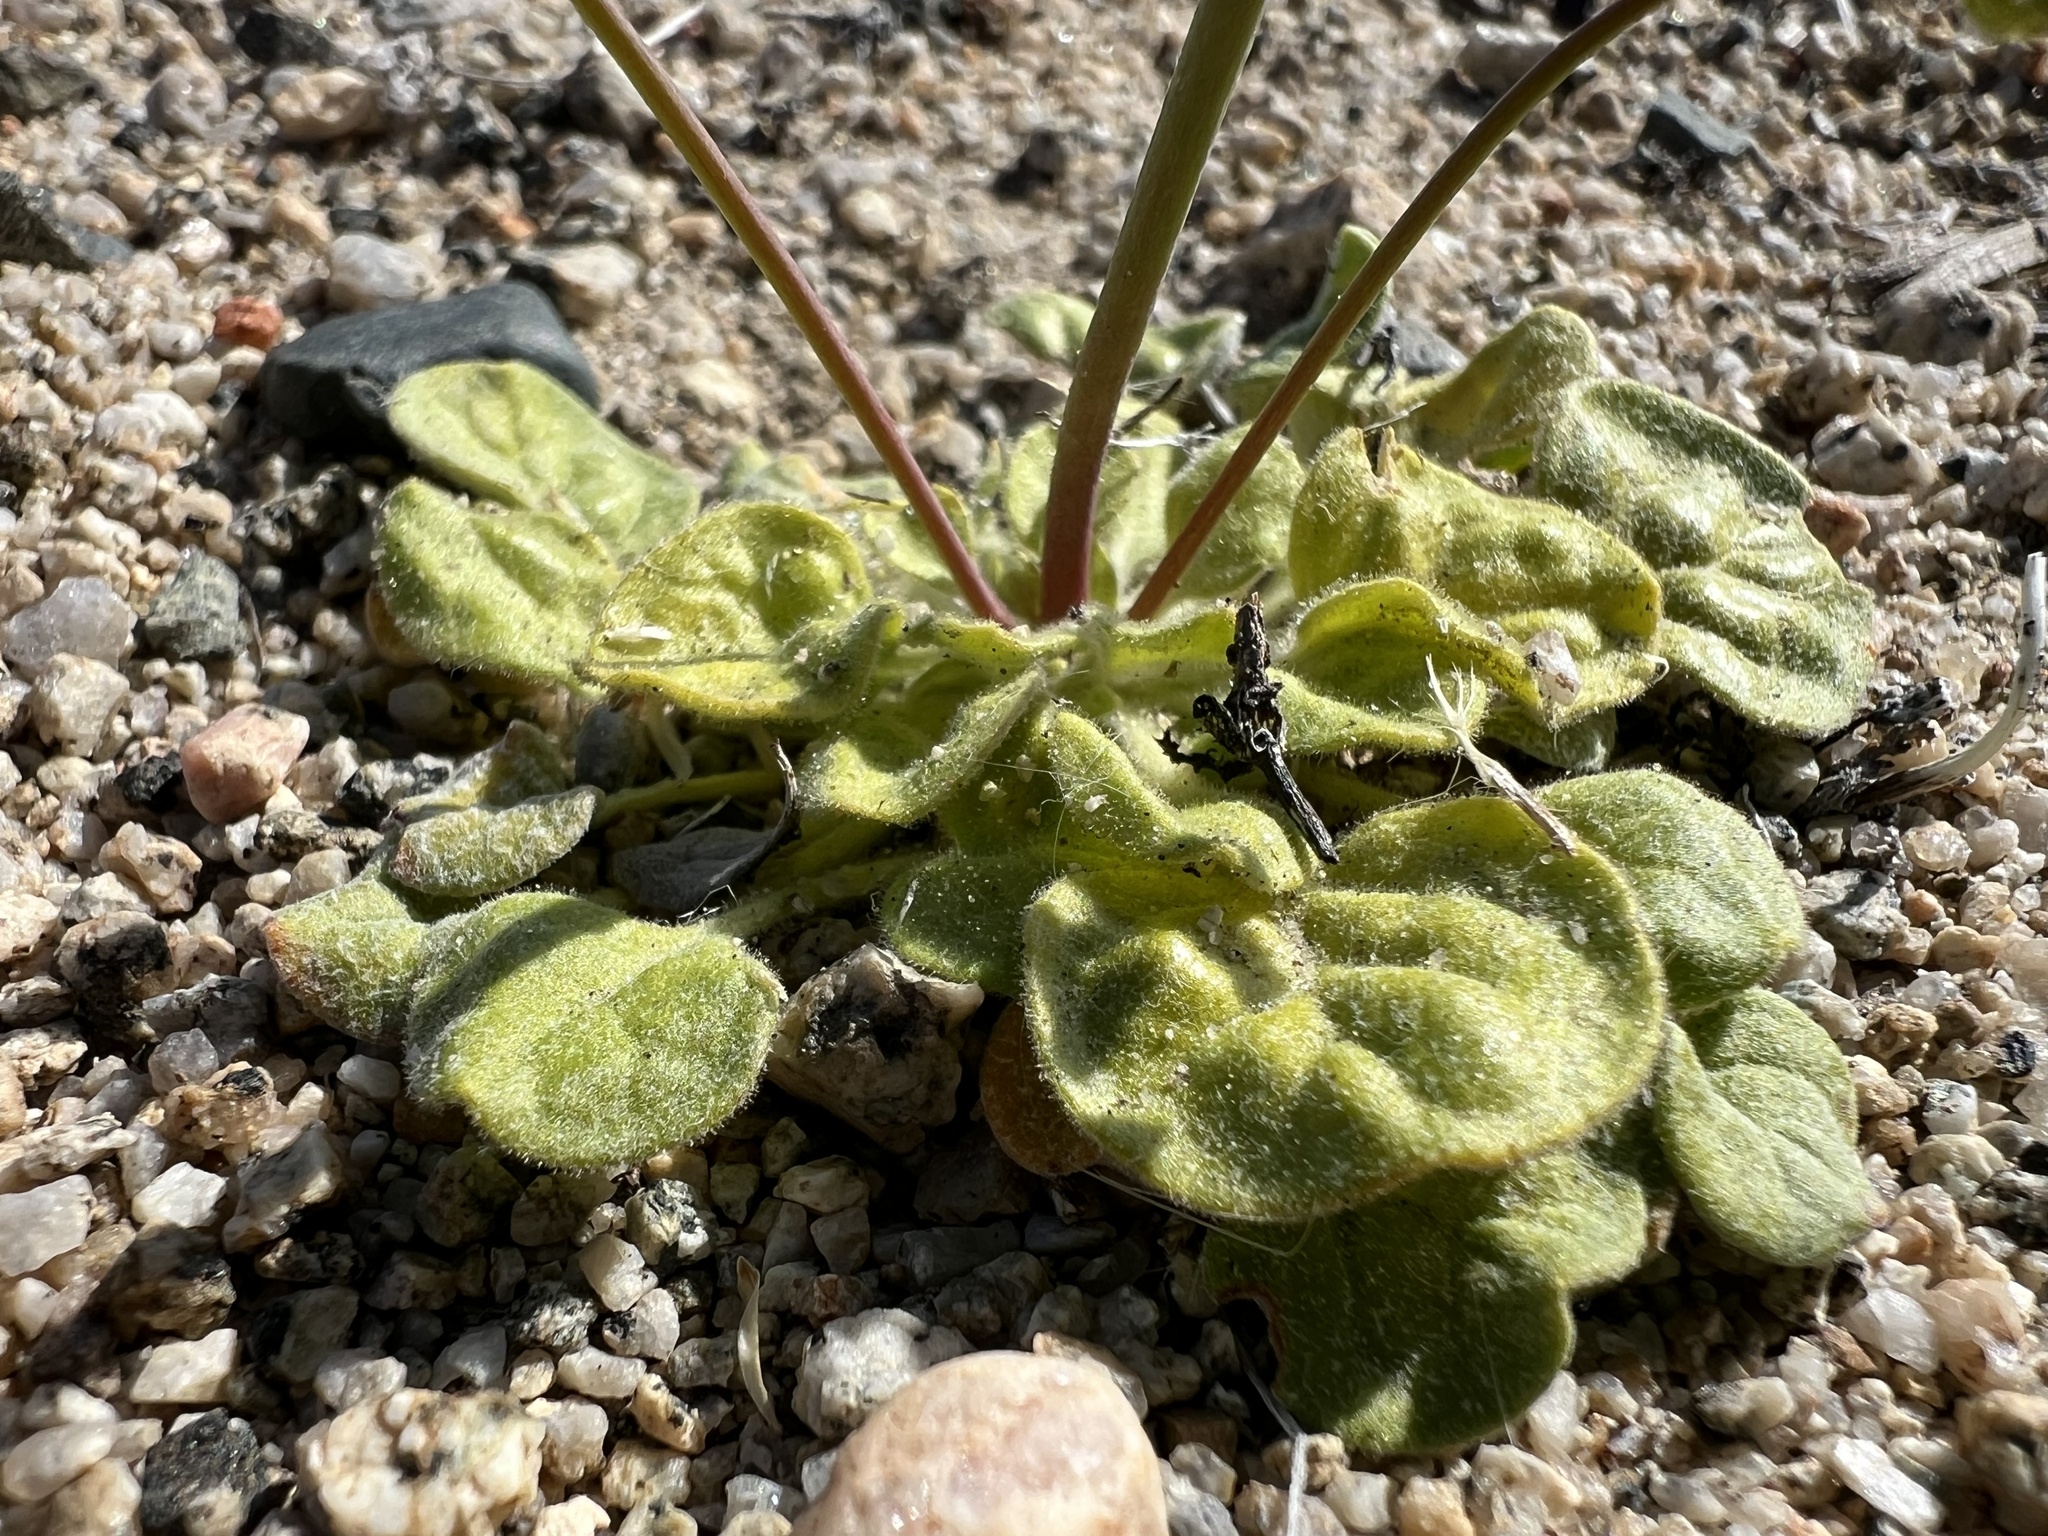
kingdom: Plantae
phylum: Tracheophyta
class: Magnoliopsida
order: Caryophyllales
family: Polygonaceae
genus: Eriogonum
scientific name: Eriogonum pusillum
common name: Yellow turbans
